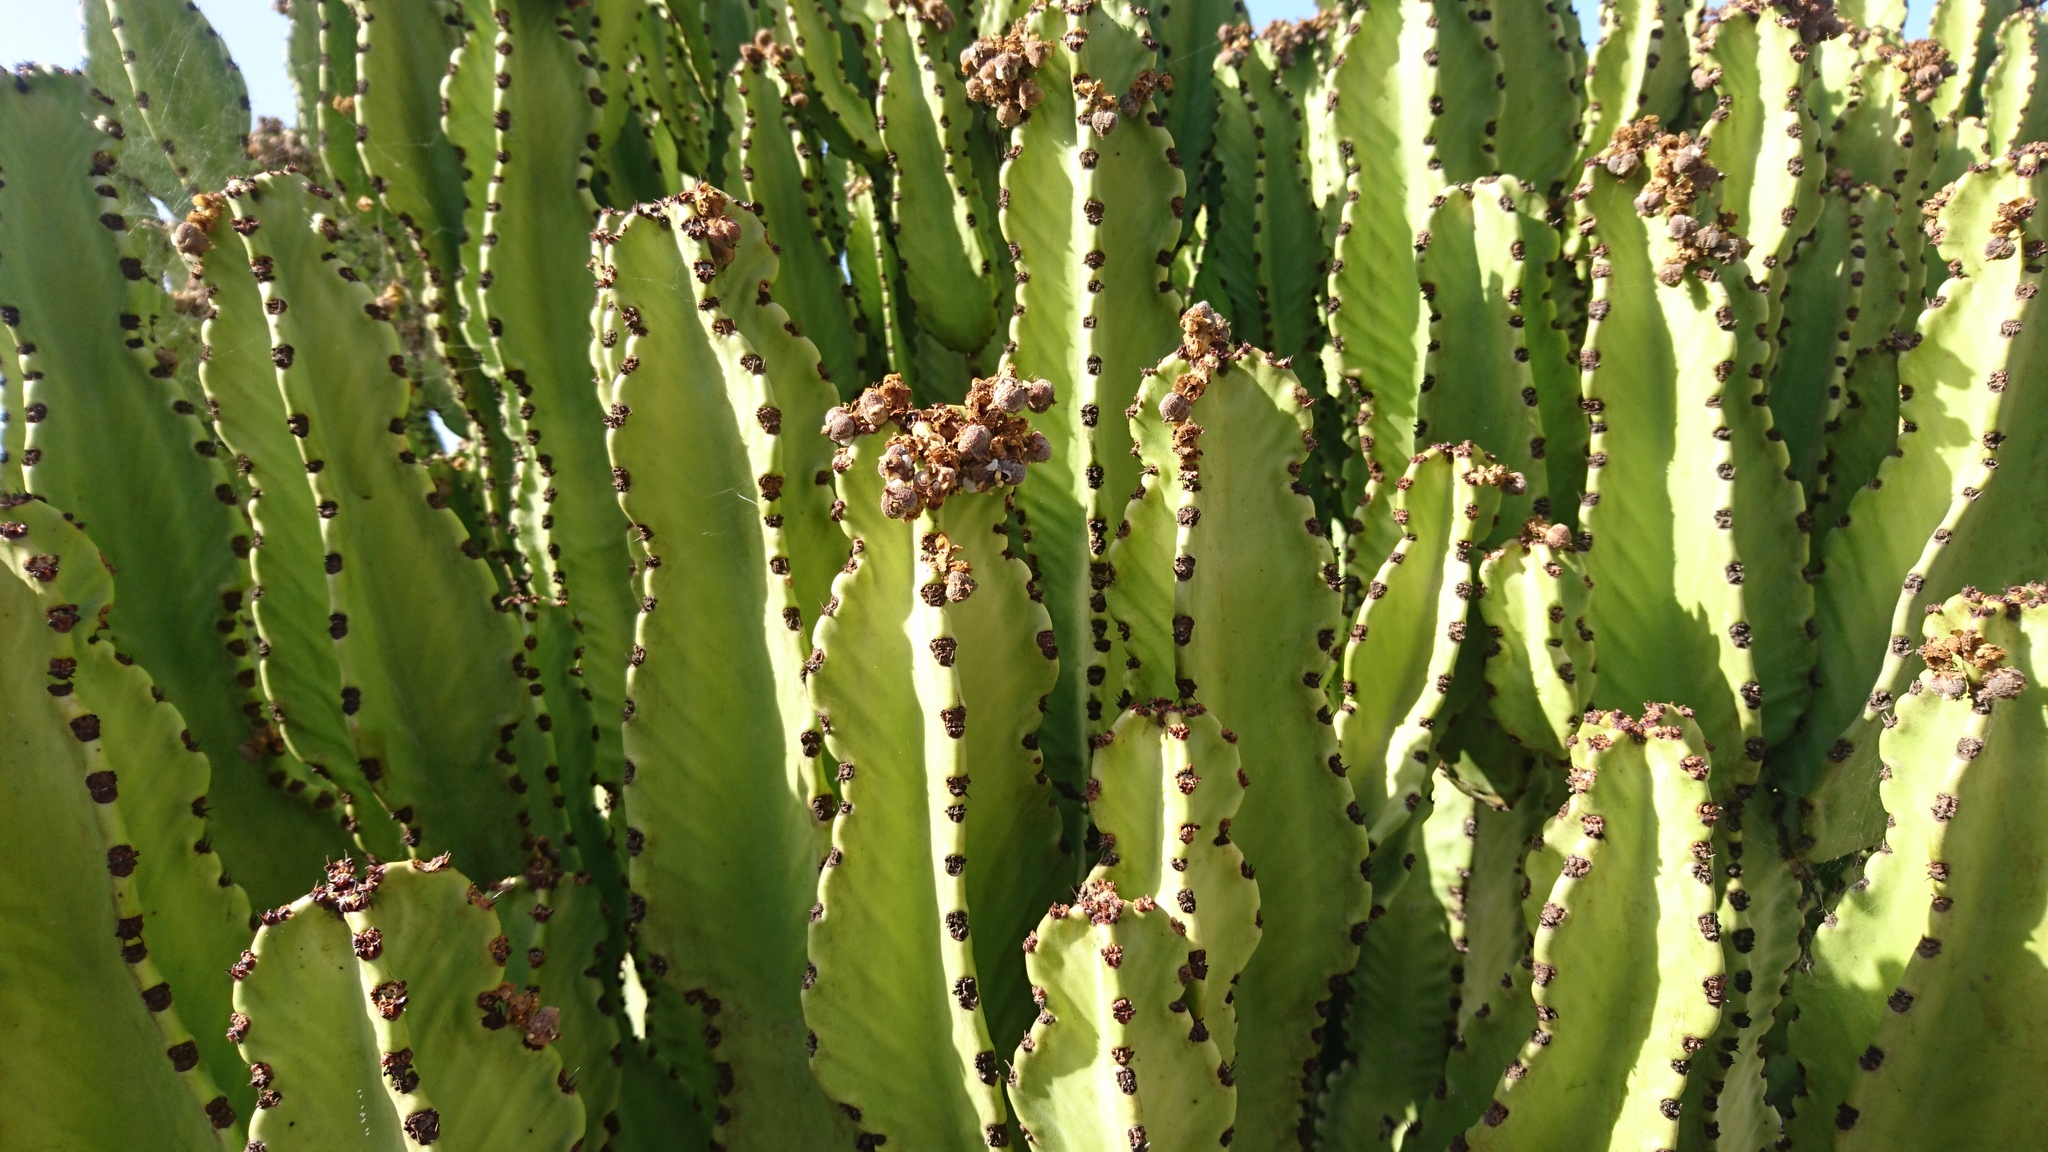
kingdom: Plantae
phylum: Tracheophyta
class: Magnoliopsida
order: Malpighiales
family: Euphorbiaceae
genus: Euphorbia
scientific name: Euphorbia canariensis
